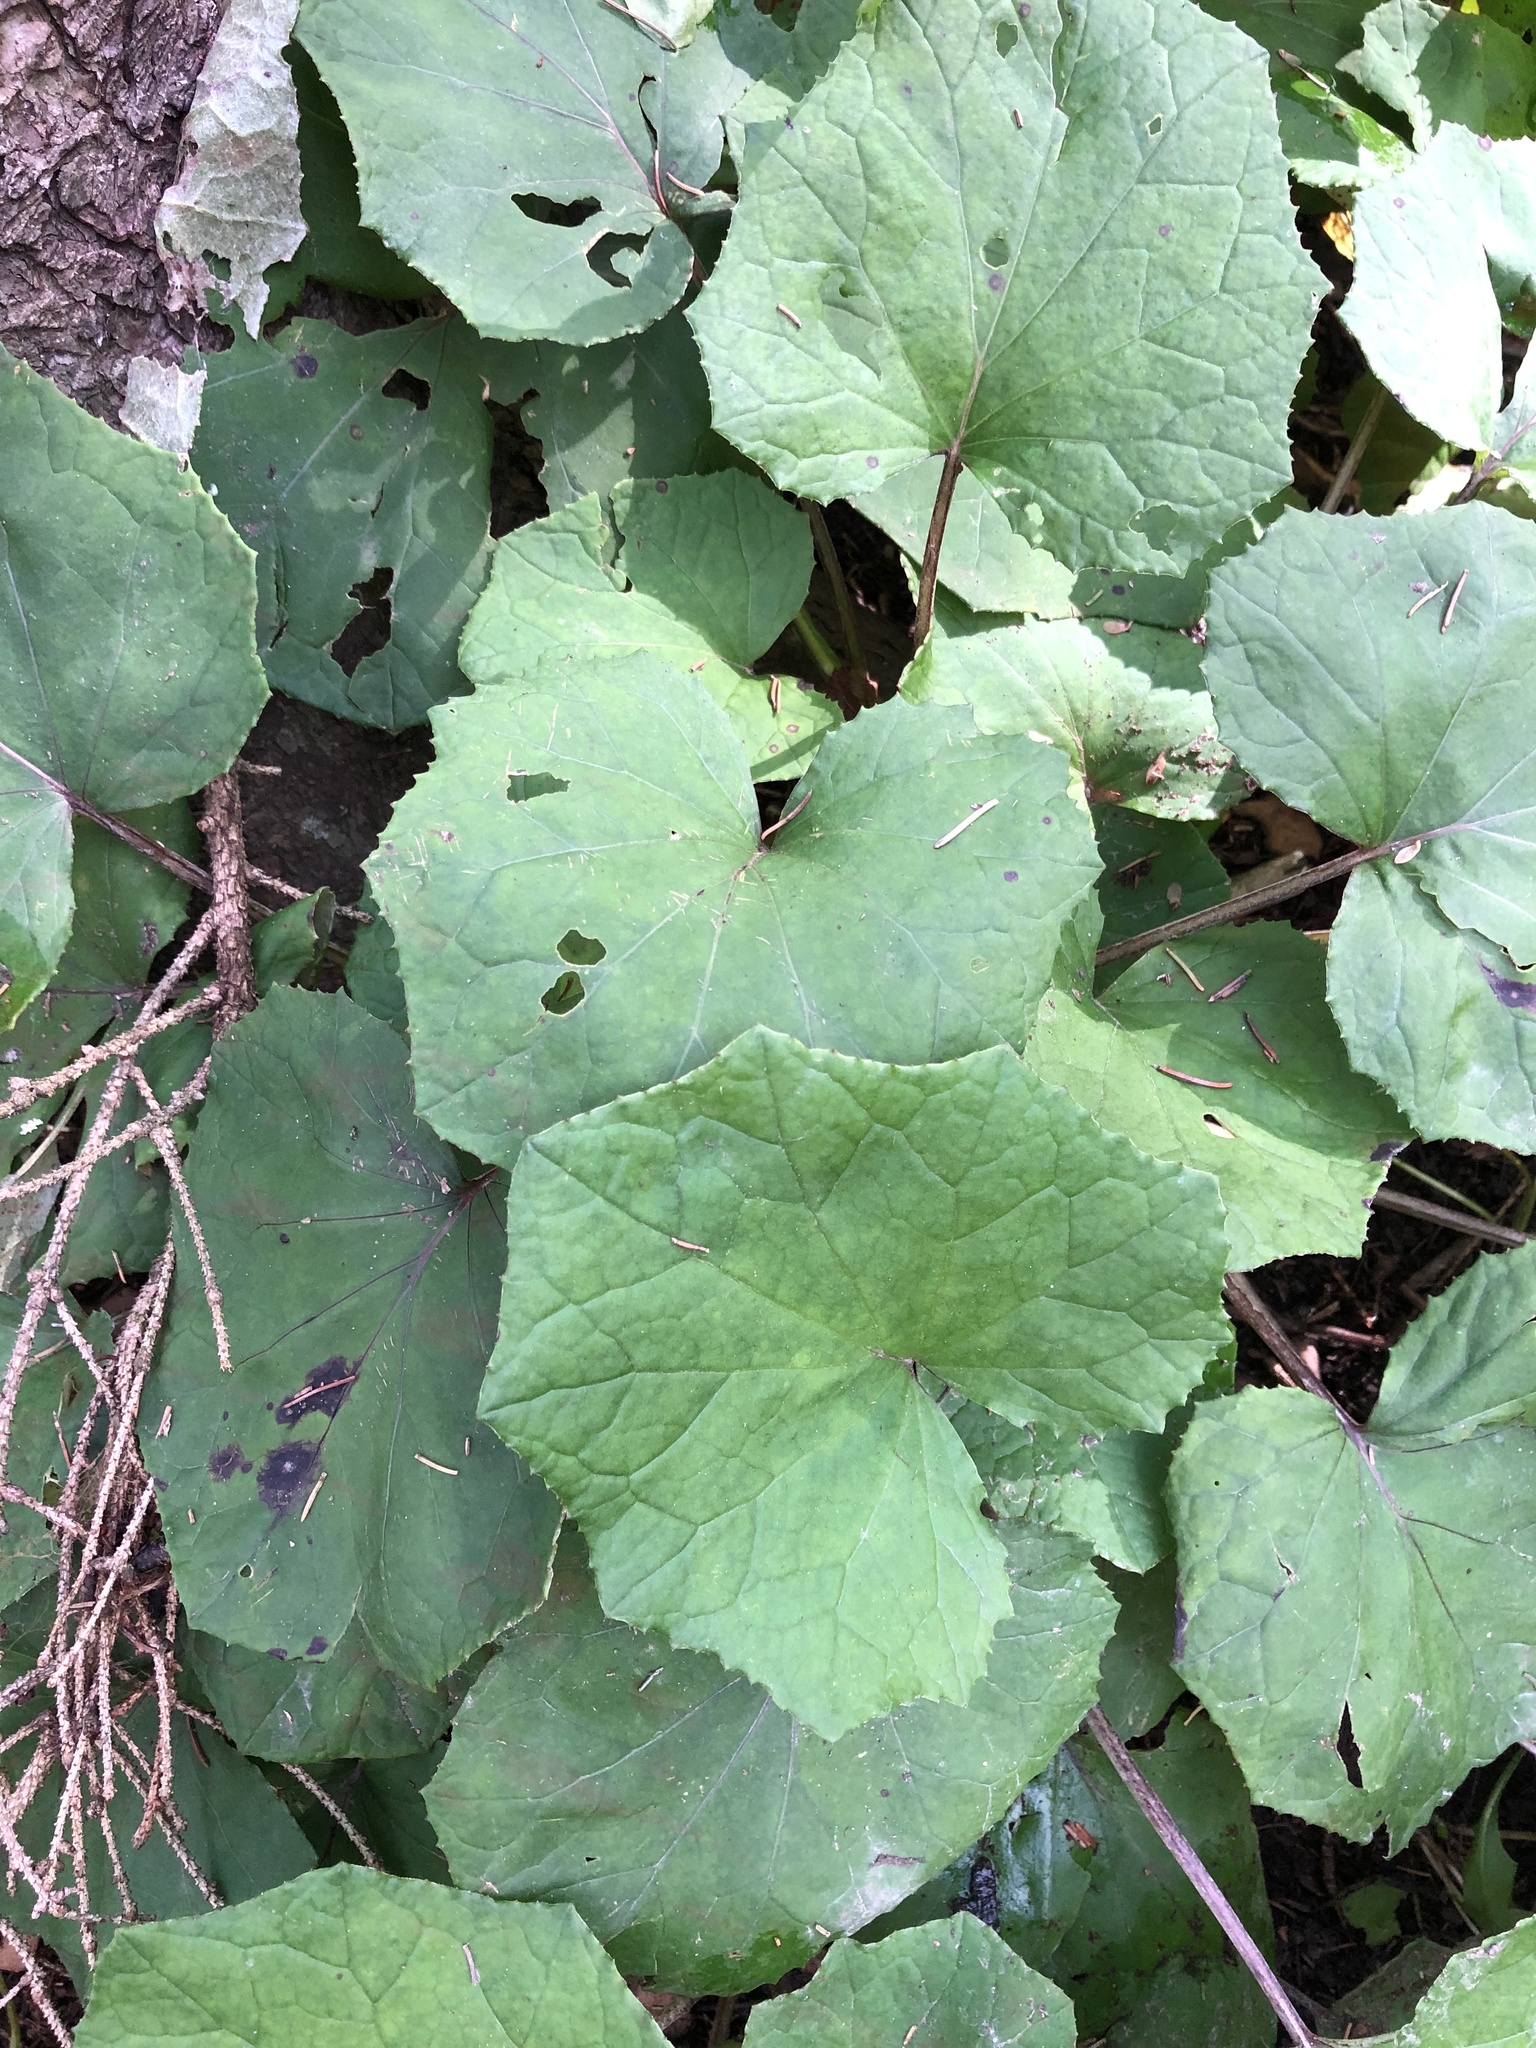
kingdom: Plantae
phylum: Tracheophyta
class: Magnoliopsida
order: Asterales
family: Asteraceae
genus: Tussilago
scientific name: Tussilago farfara
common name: Coltsfoot
